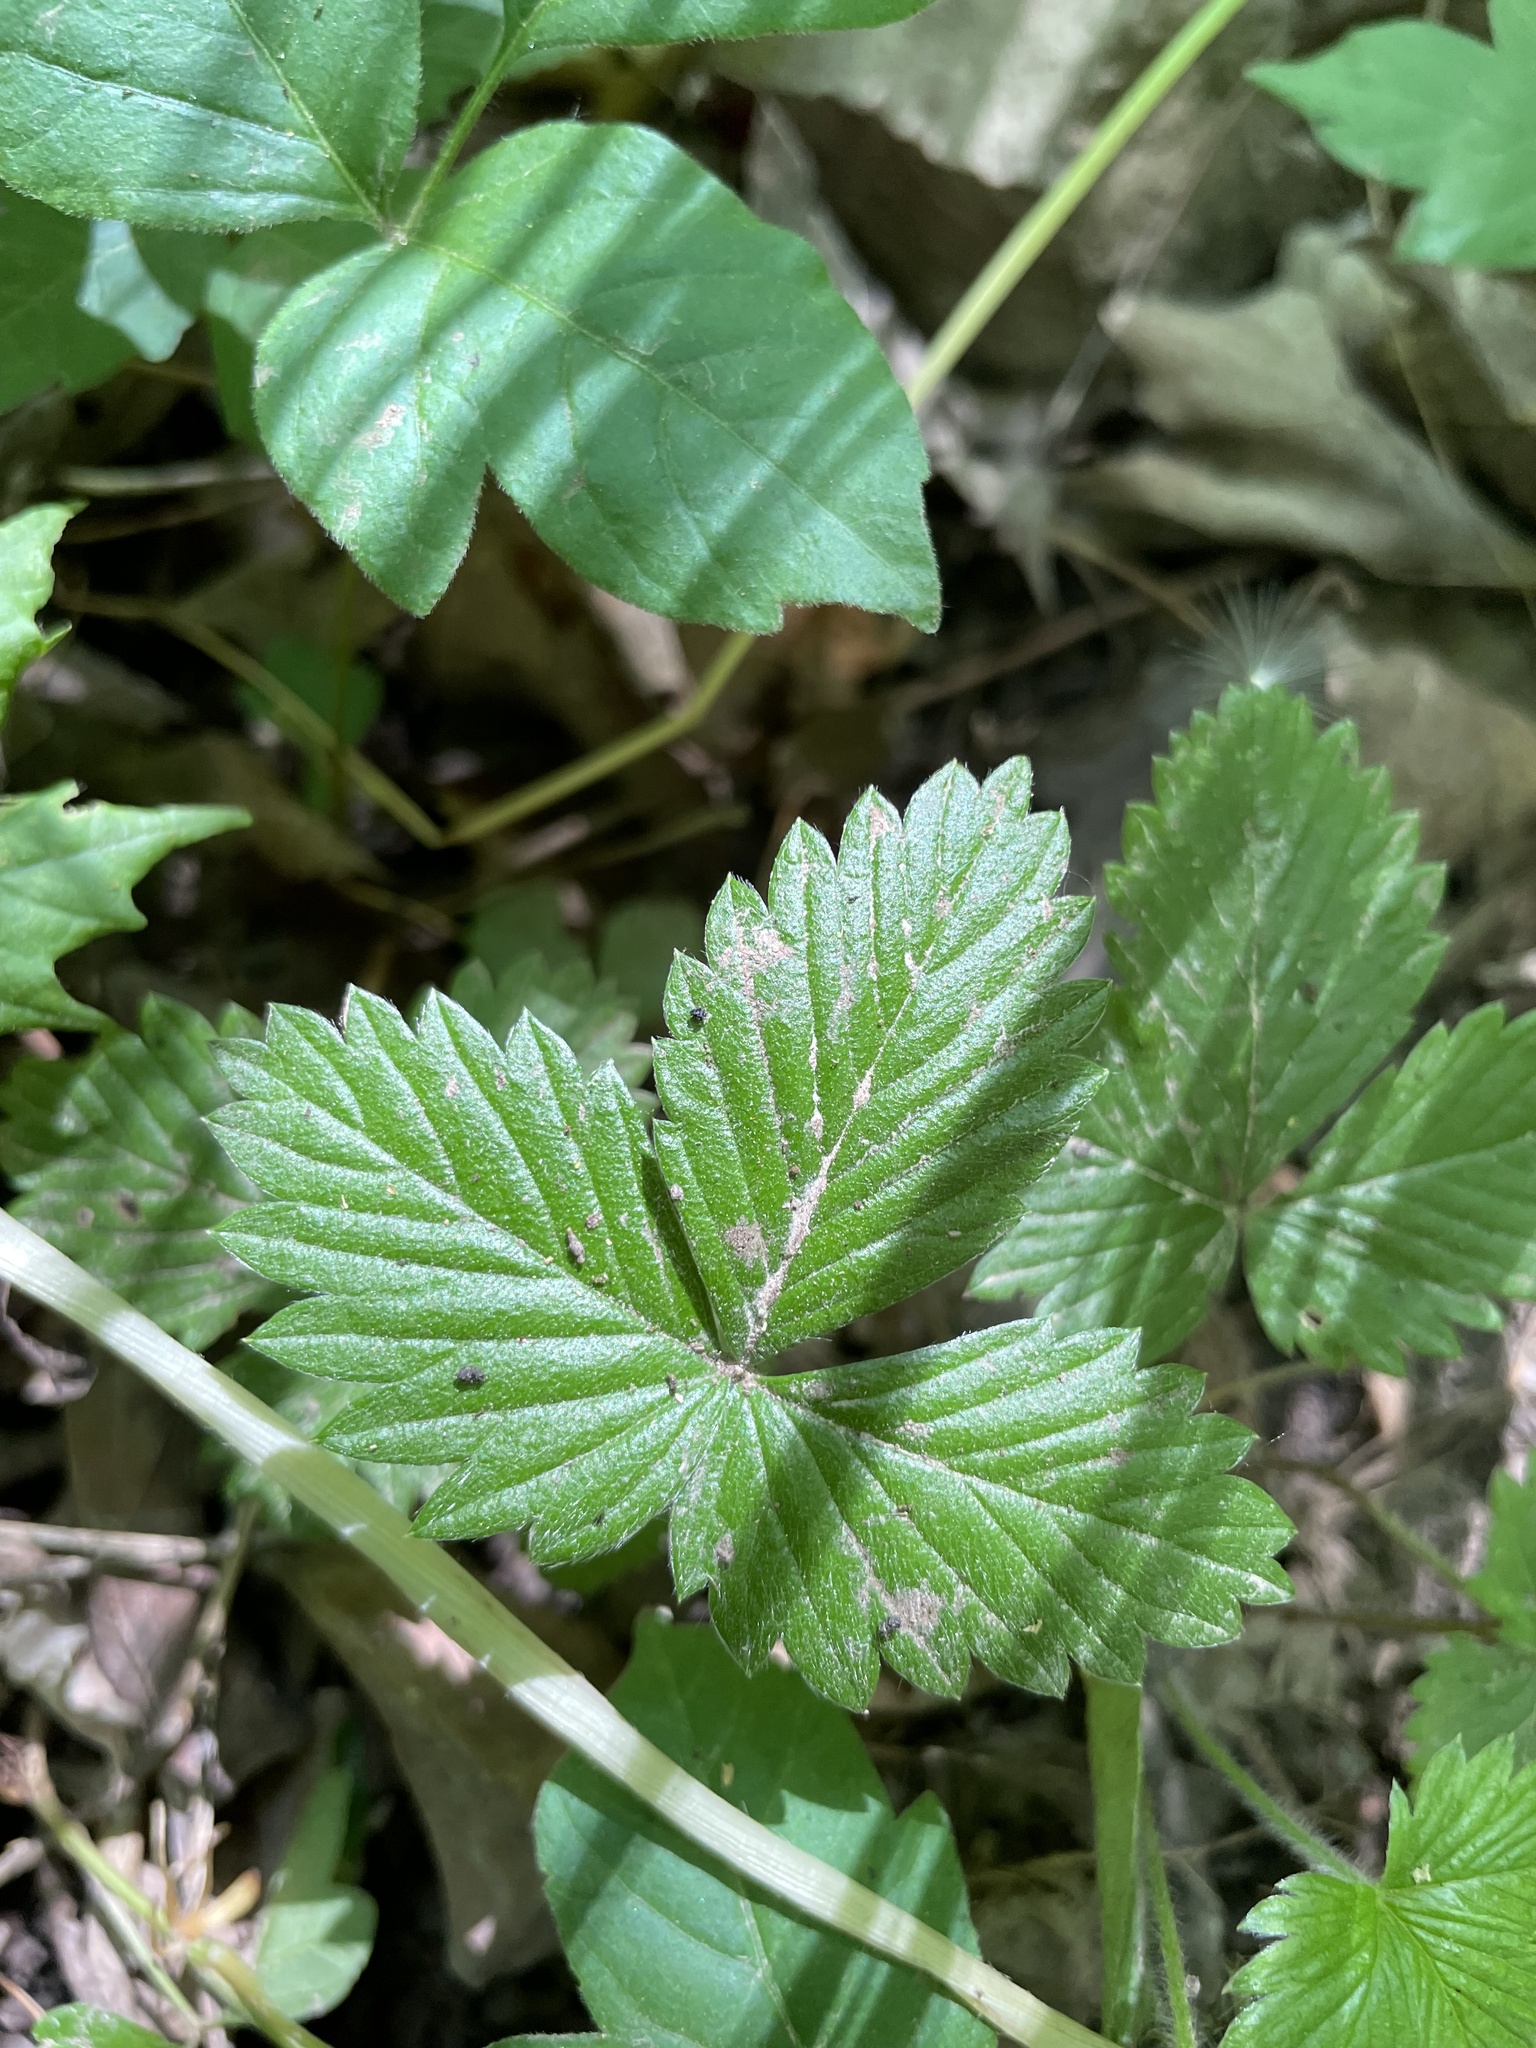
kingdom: Plantae
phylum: Tracheophyta
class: Magnoliopsida
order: Rosales
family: Rosaceae
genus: Fragaria
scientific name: Fragaria vesca
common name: Wild strawberry
